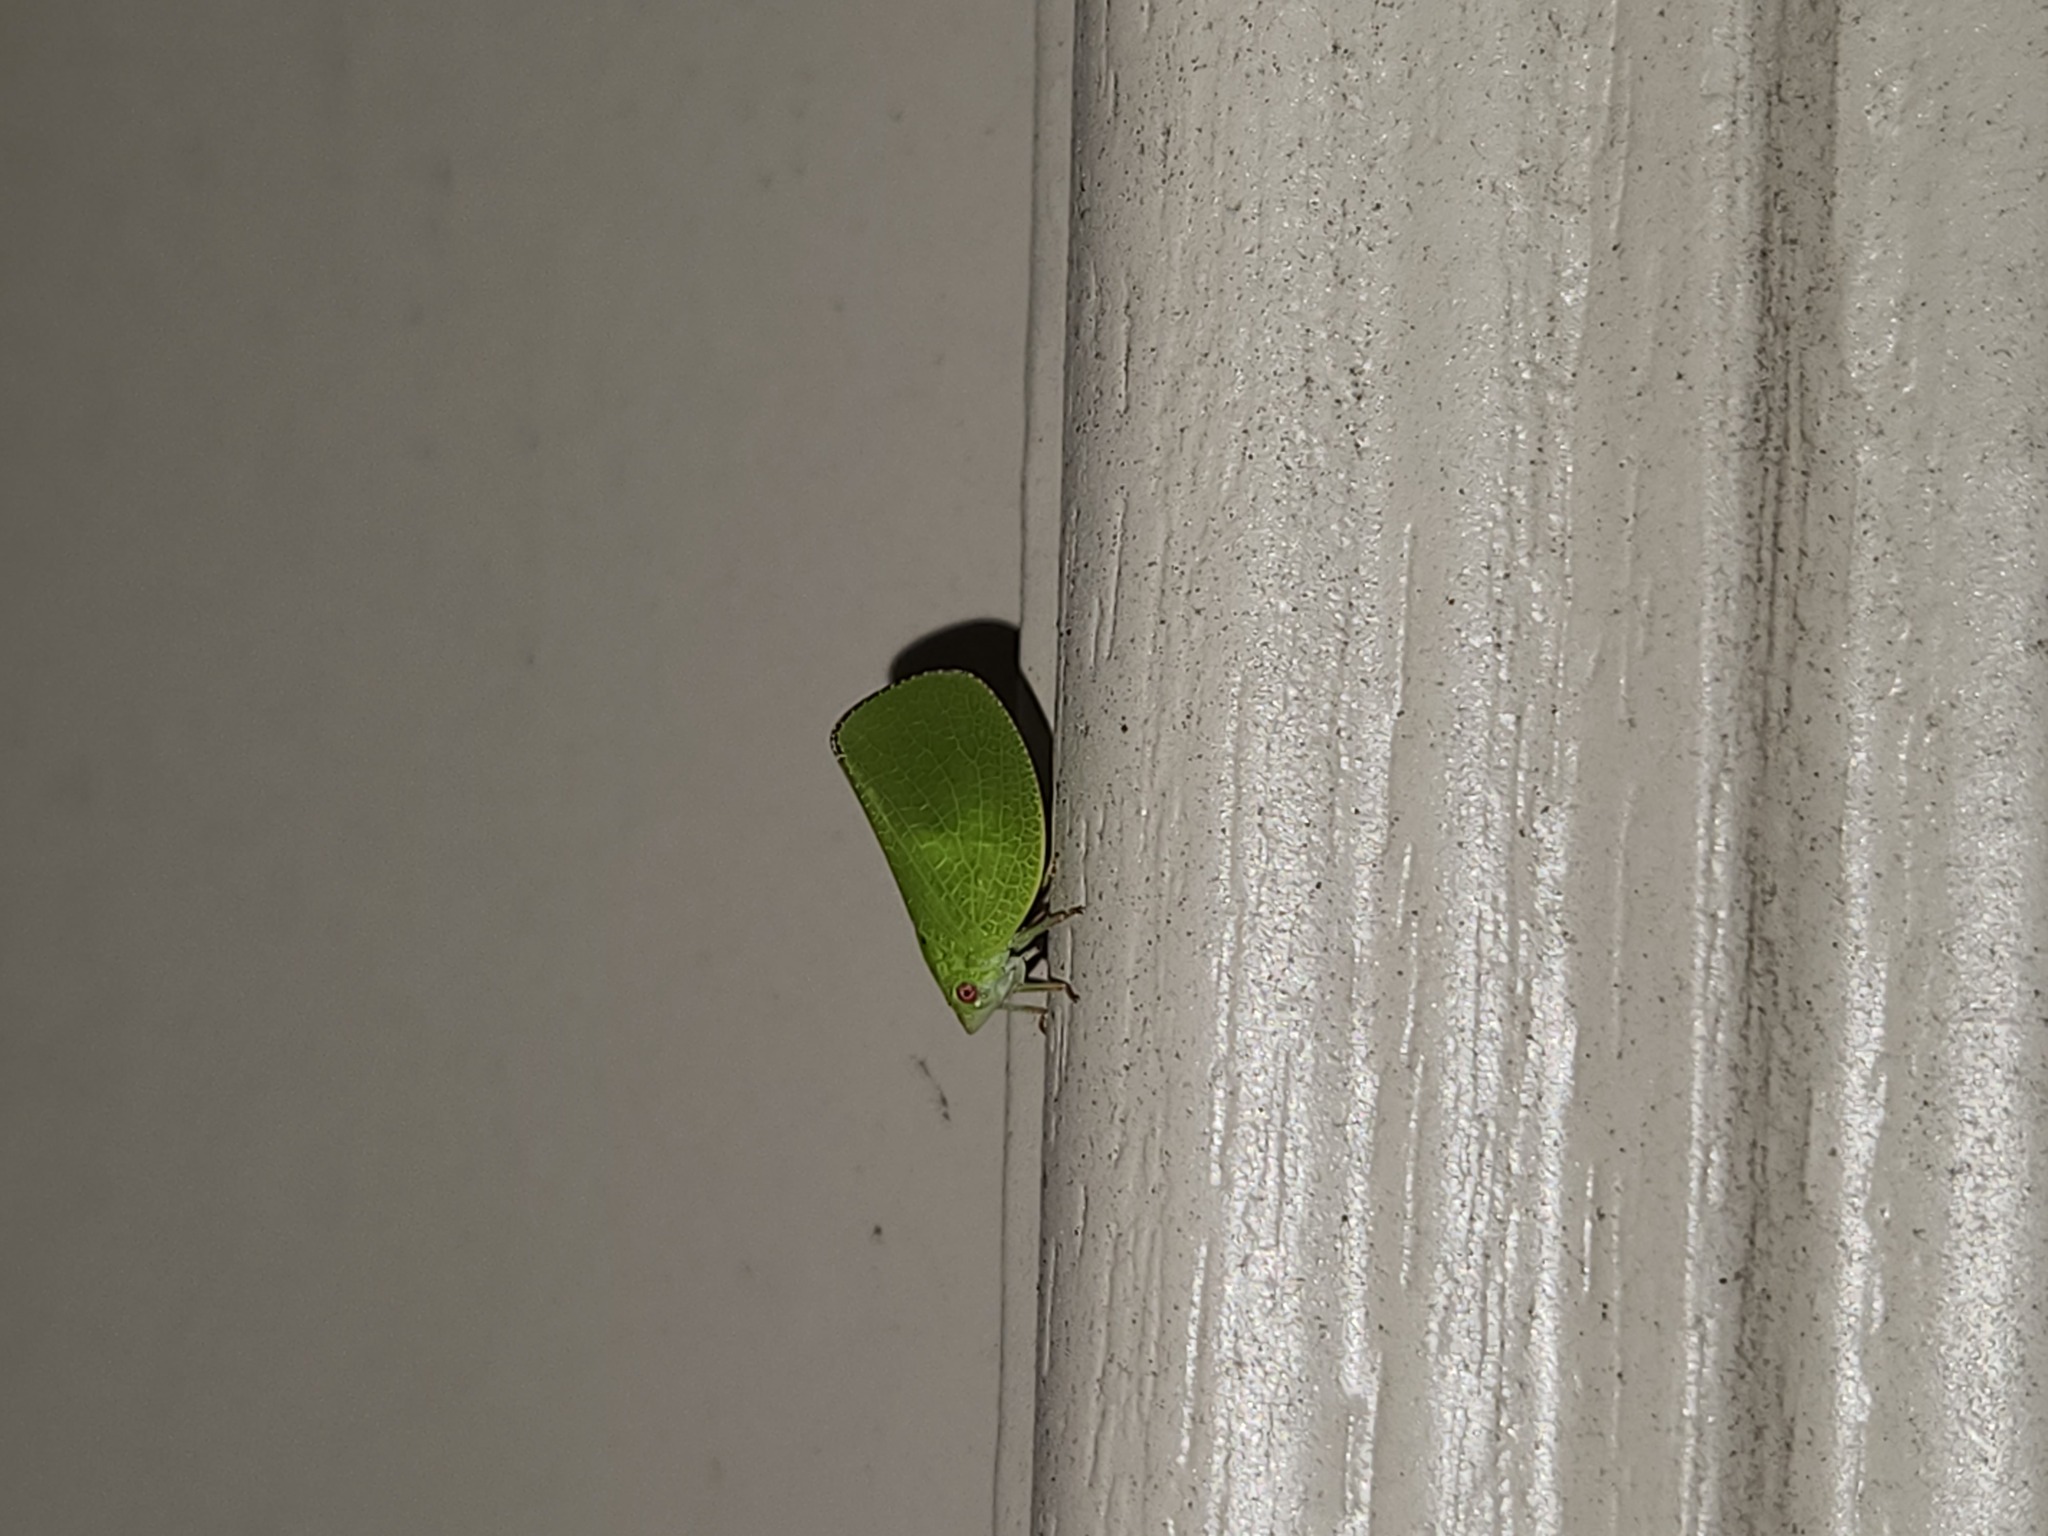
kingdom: Animalia
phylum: Arthropoda
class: Insecta
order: Hemiptera
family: Acanaloniidae
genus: Acanalonia
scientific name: Acanalonia conica
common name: Green cone-headed planthopper
